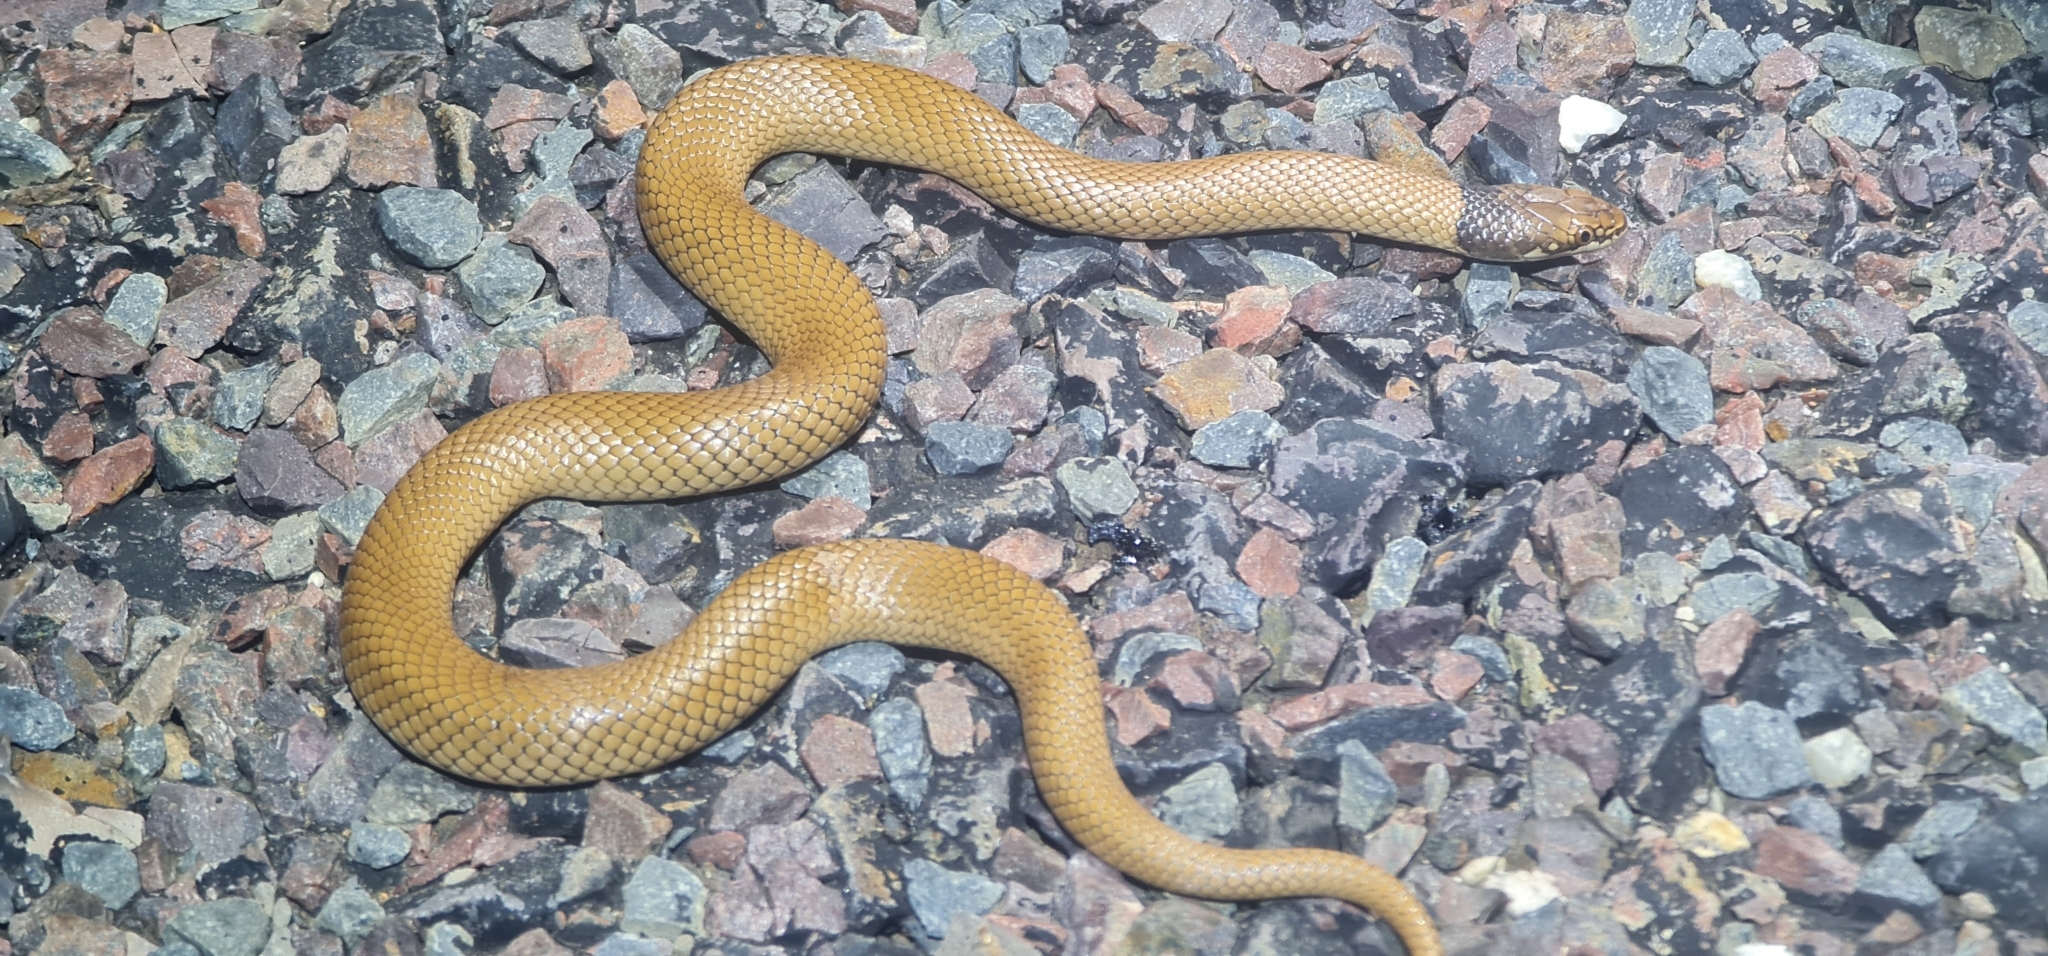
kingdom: Animalia
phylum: Chordata
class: Squamata
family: Elapidae
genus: Suta
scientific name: Suta suta
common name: Curl snake
